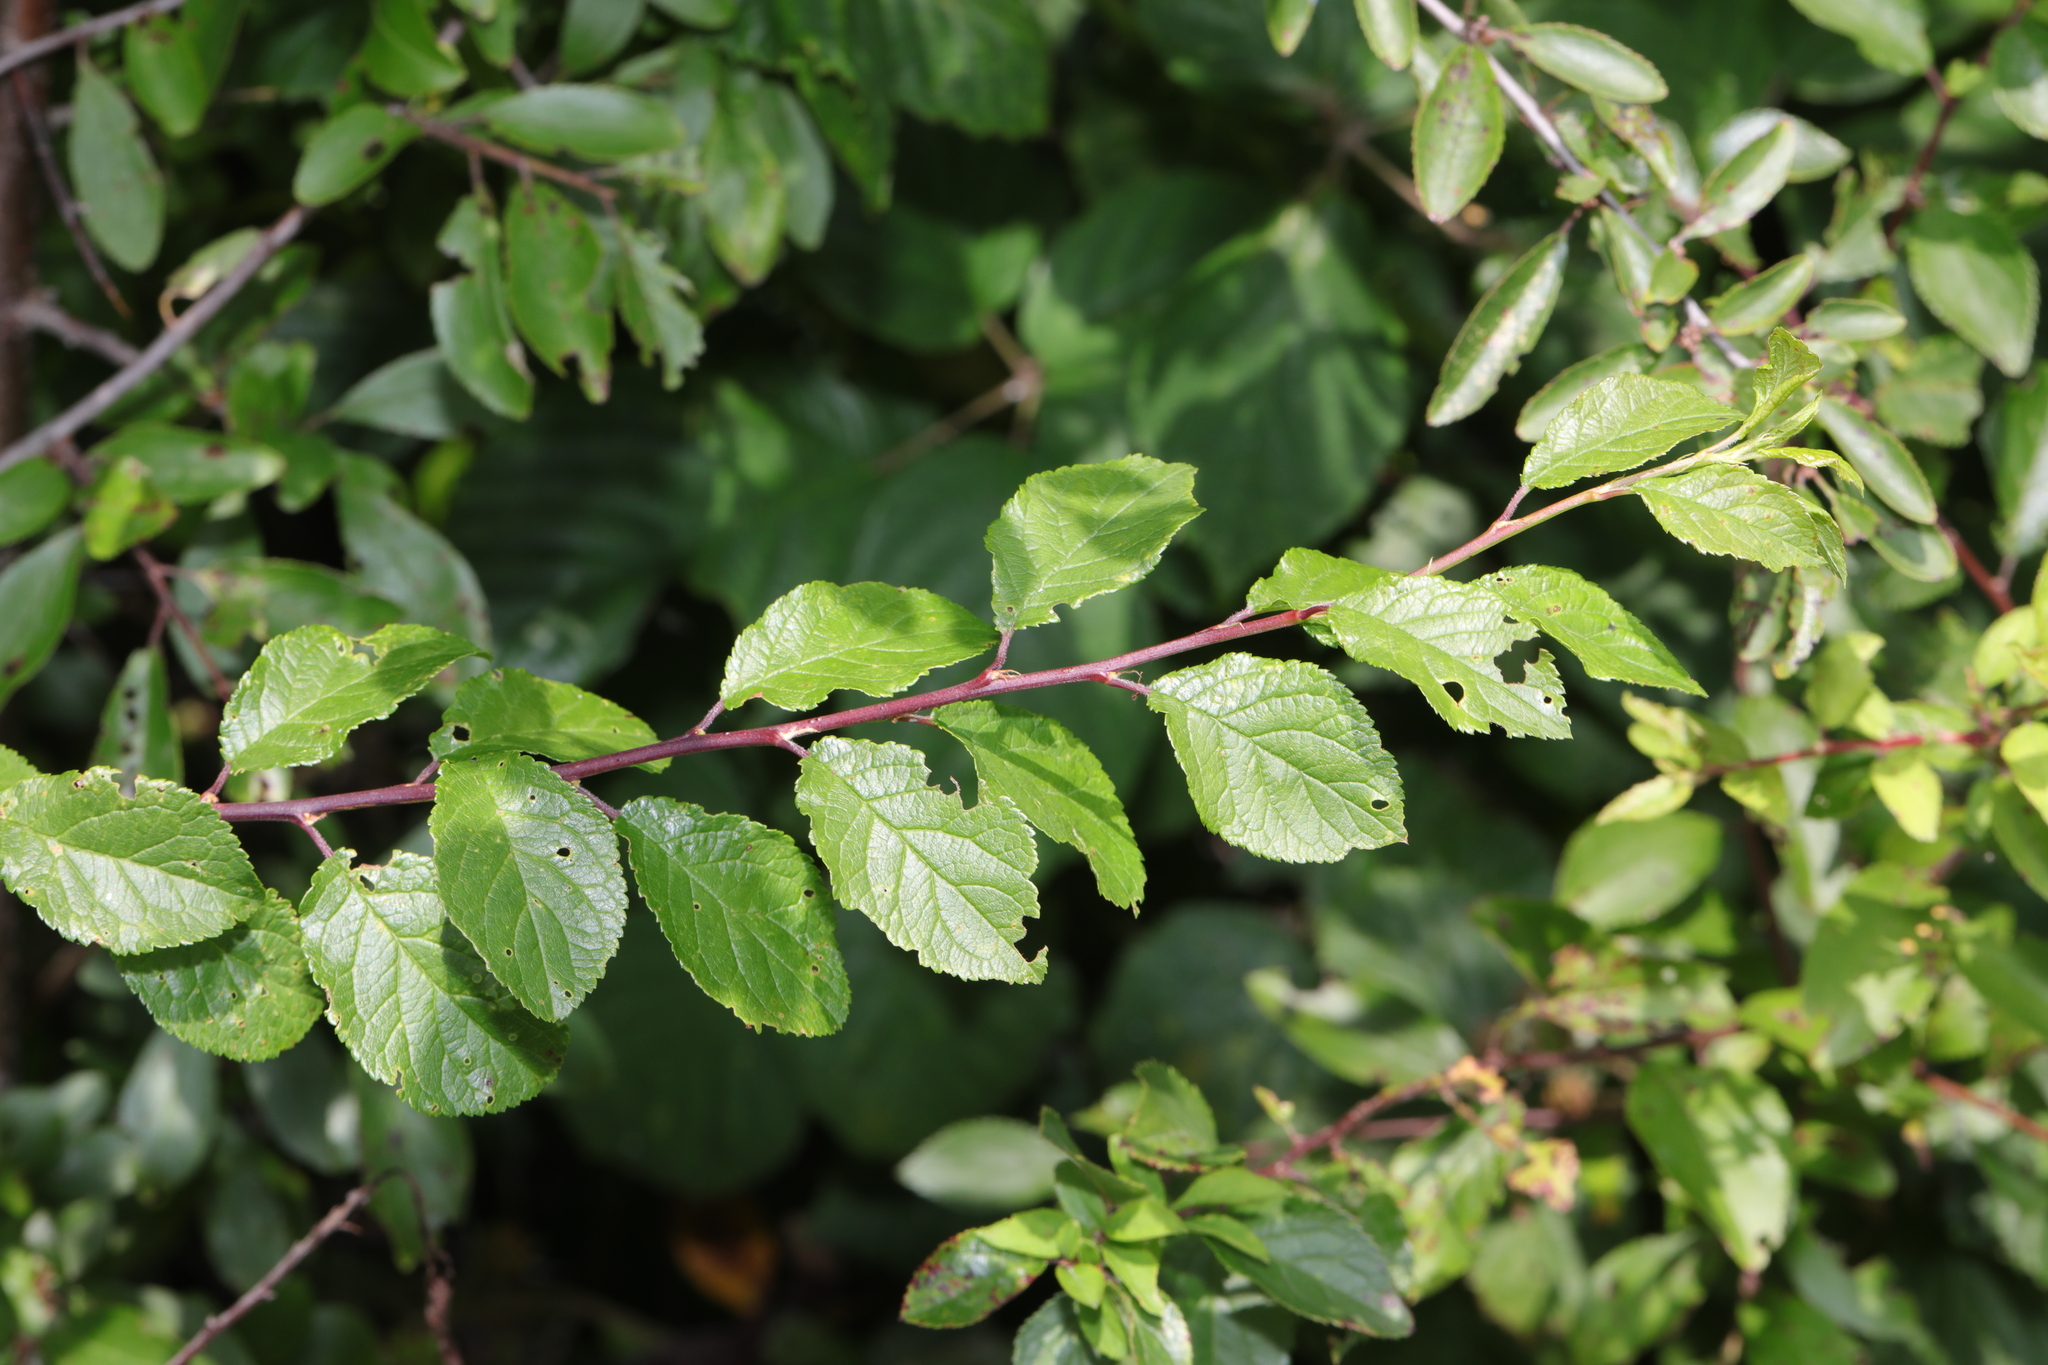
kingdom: Plantae
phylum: Tracheophyta
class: Magnoliopsida
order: Rosales
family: Rosaceae
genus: Prunus
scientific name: Prunus spinosa
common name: Blackthorn
